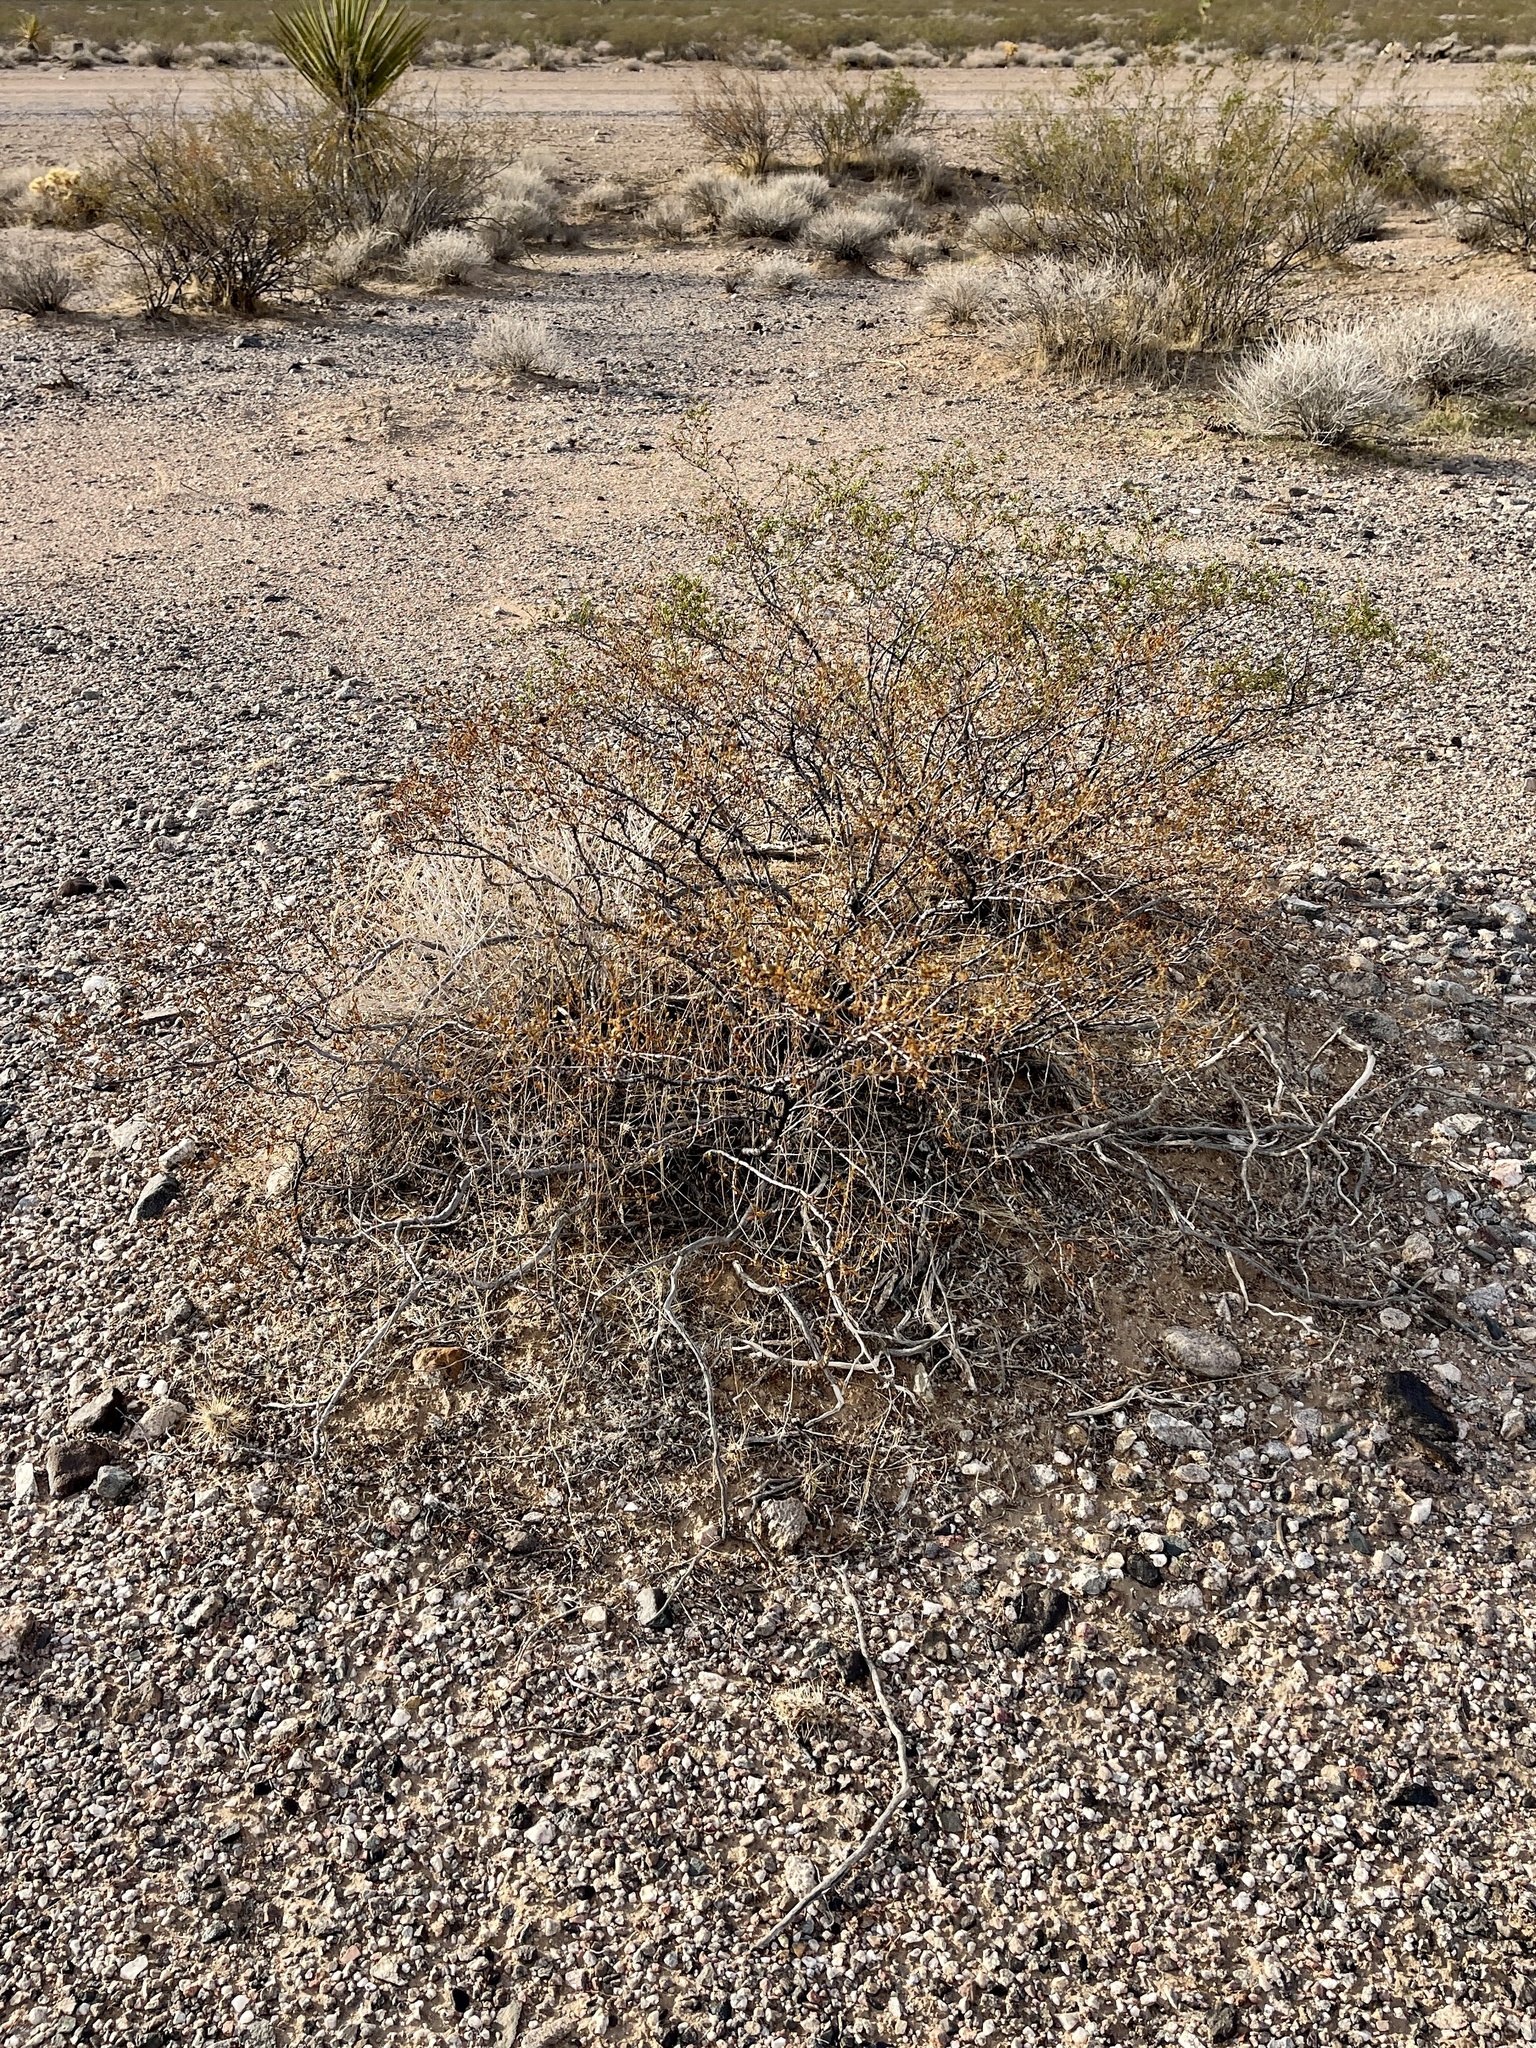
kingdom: Plantae
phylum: Tracheophyta
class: Magnoliopsida
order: Zygophyllales
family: Zygophyllaceae
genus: Larrea
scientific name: Larrea tridentata
